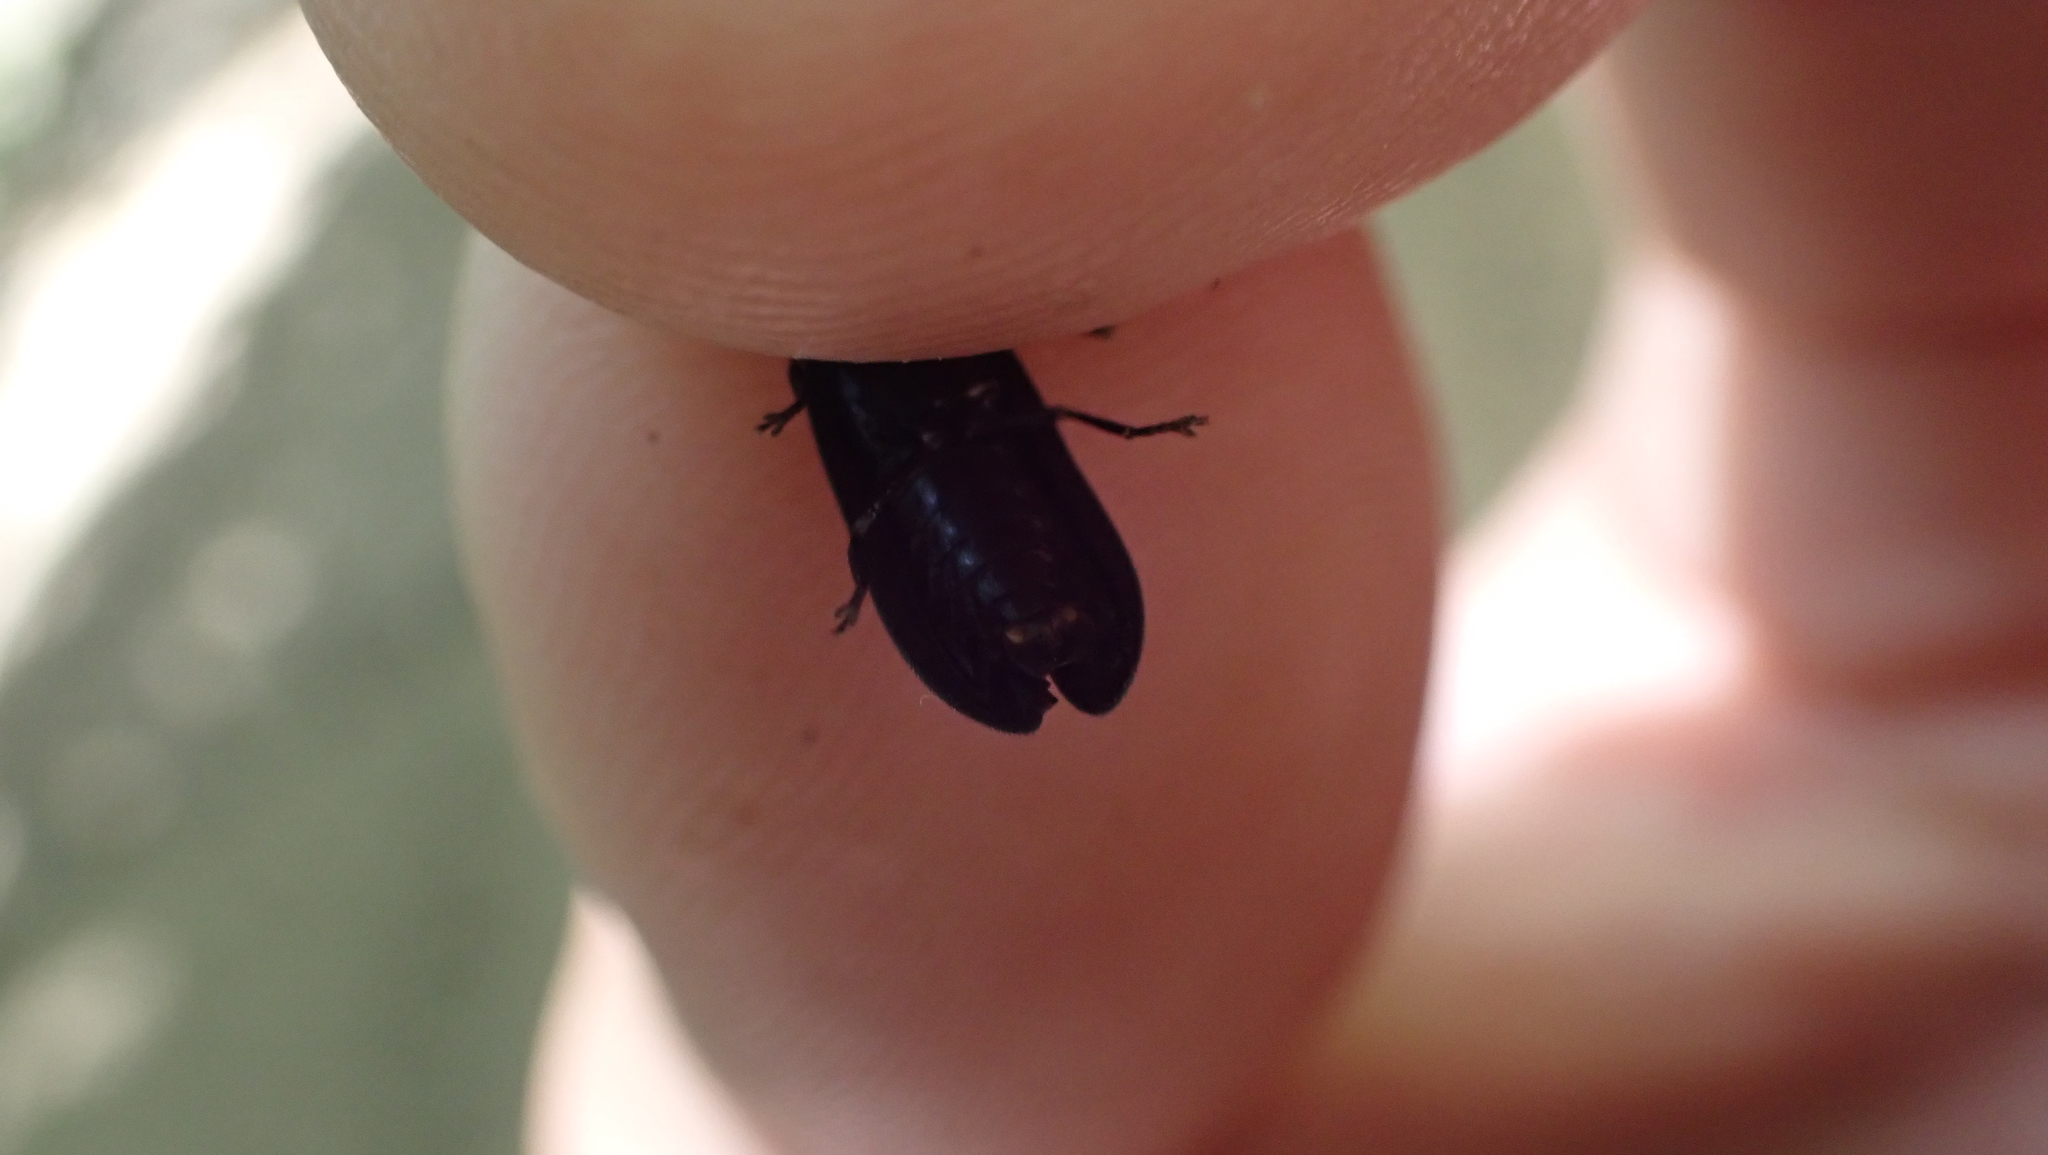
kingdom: Animalia
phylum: Arthropoda
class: Insecta
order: Coleoptera
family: Lampyridae
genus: Lucidota
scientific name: Lucidota atra
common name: Black firefly
